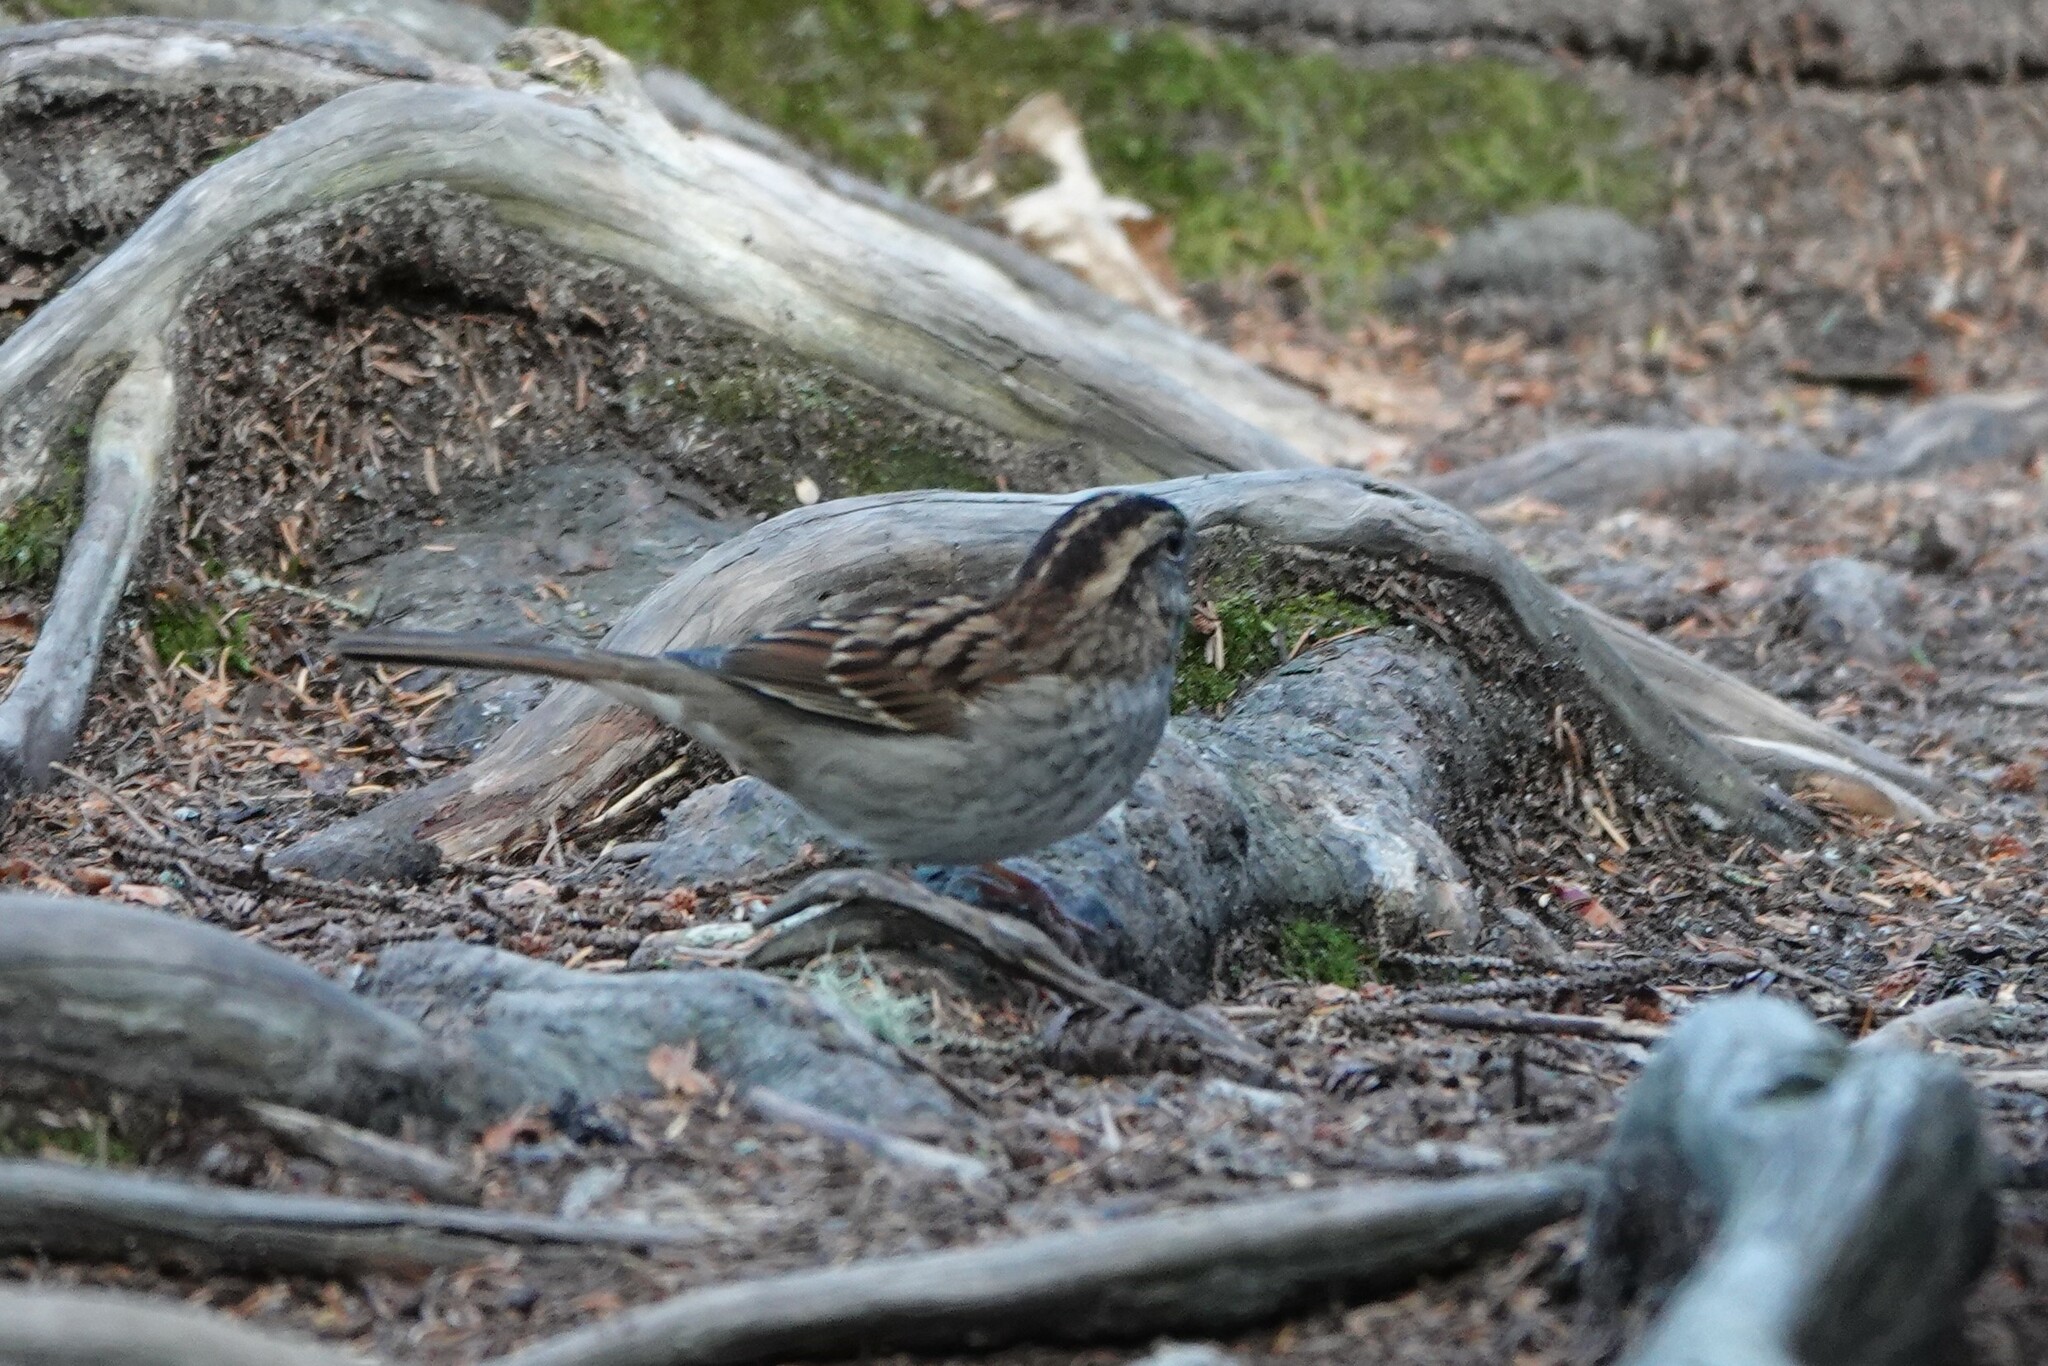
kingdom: Animalia
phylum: Chordata
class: Aves
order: Passeriformes
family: Passerellidae
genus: Zonotrichia
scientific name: Zonotrichia albicollis
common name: White-throated sparrow
